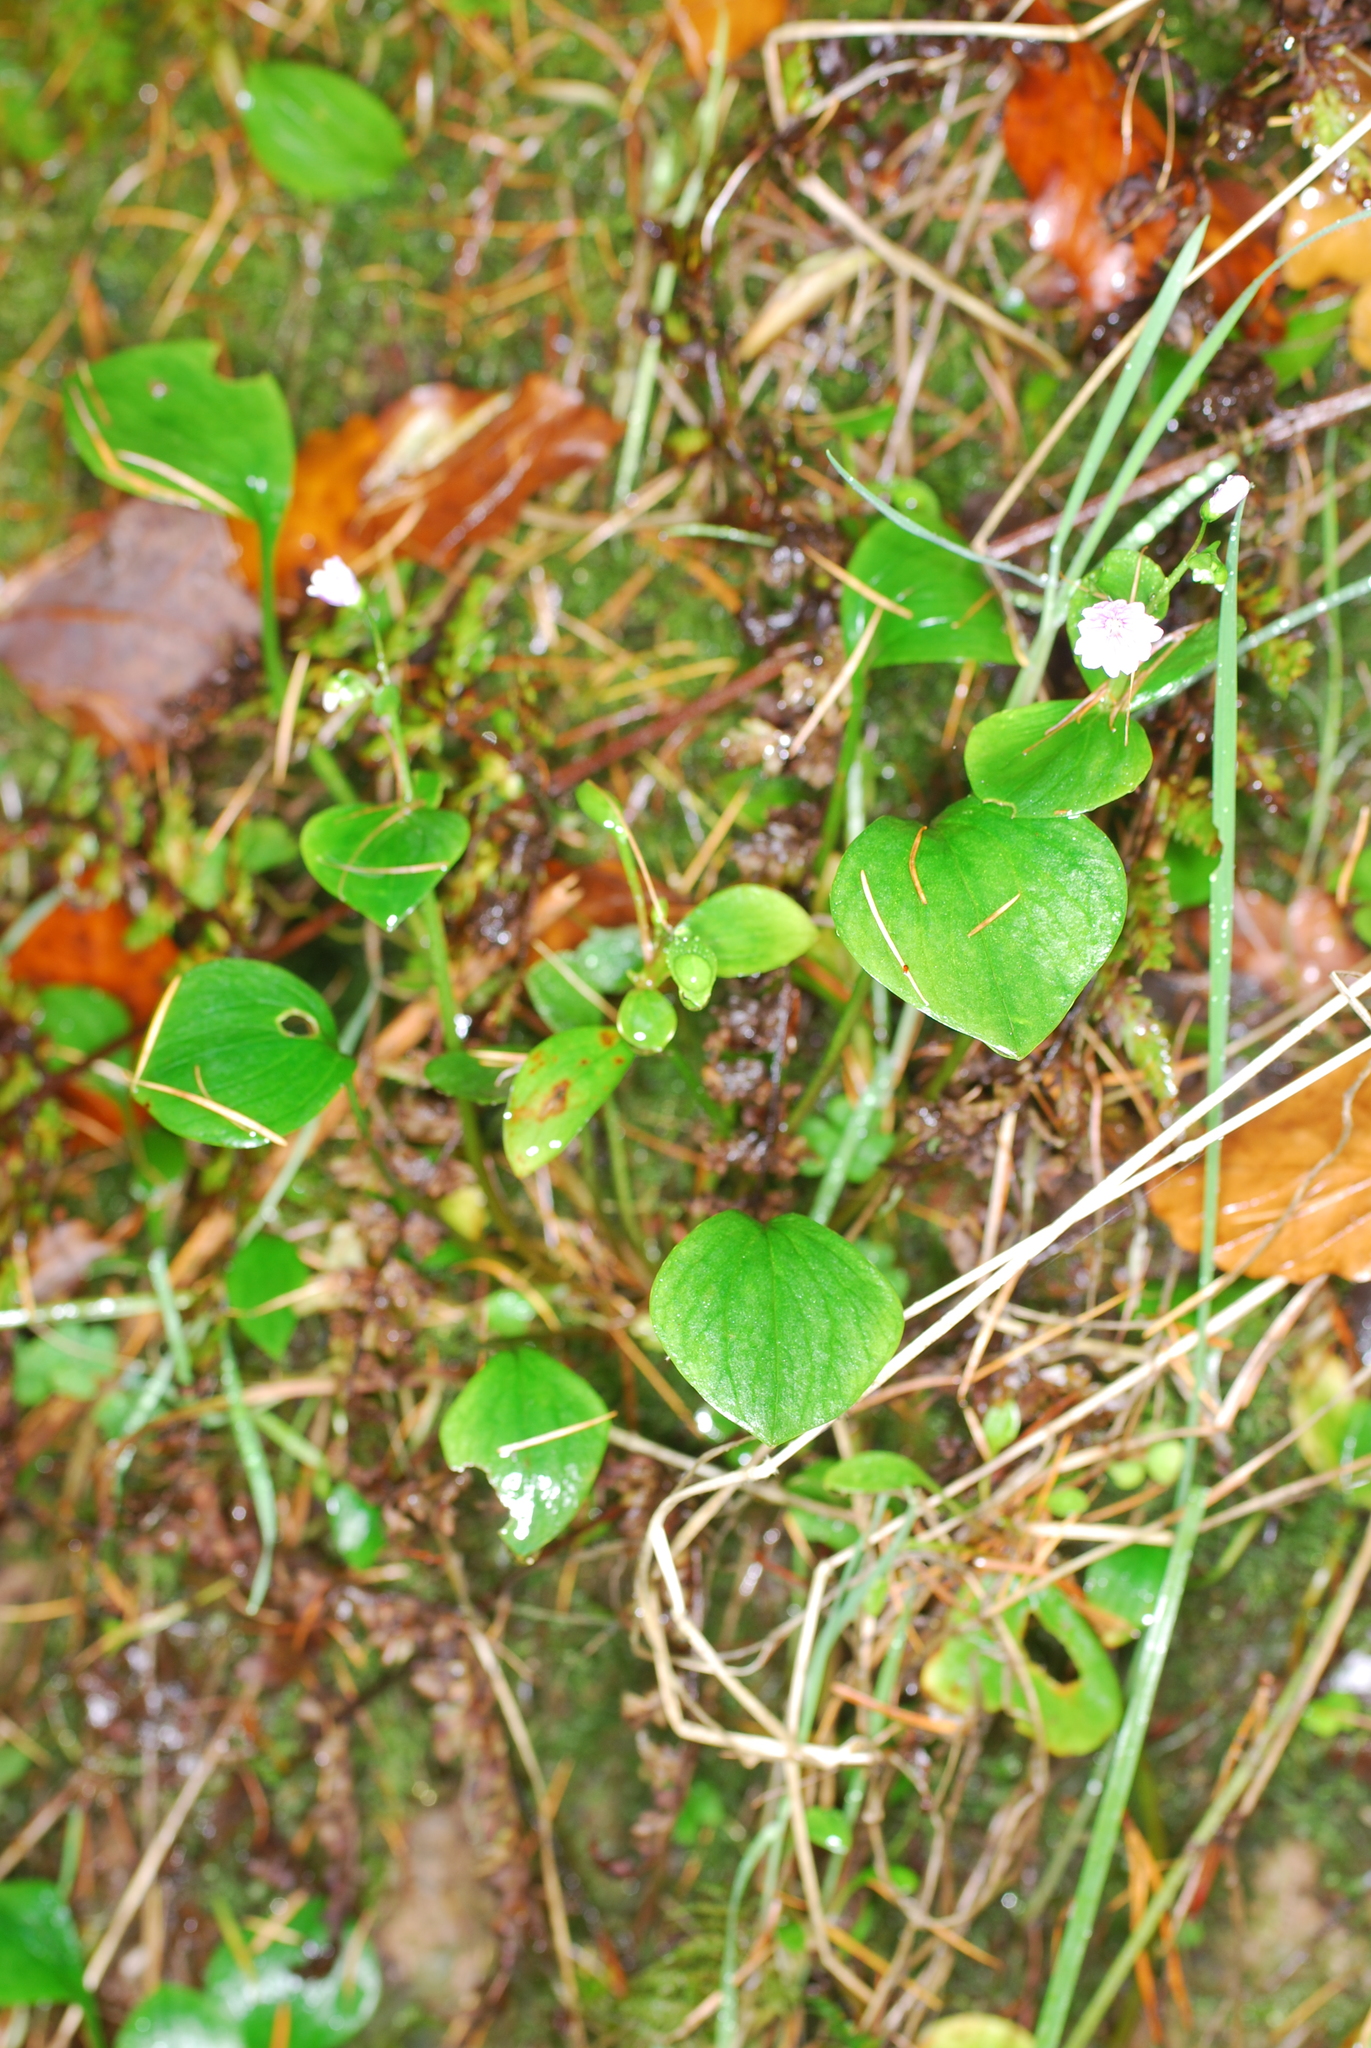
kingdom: Plantae
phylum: Tracheophyta
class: Magnoliopsida
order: Caryophyllales
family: Montiaceae
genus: Claytonia
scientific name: Claytonia sibirica
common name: Pink purslane
